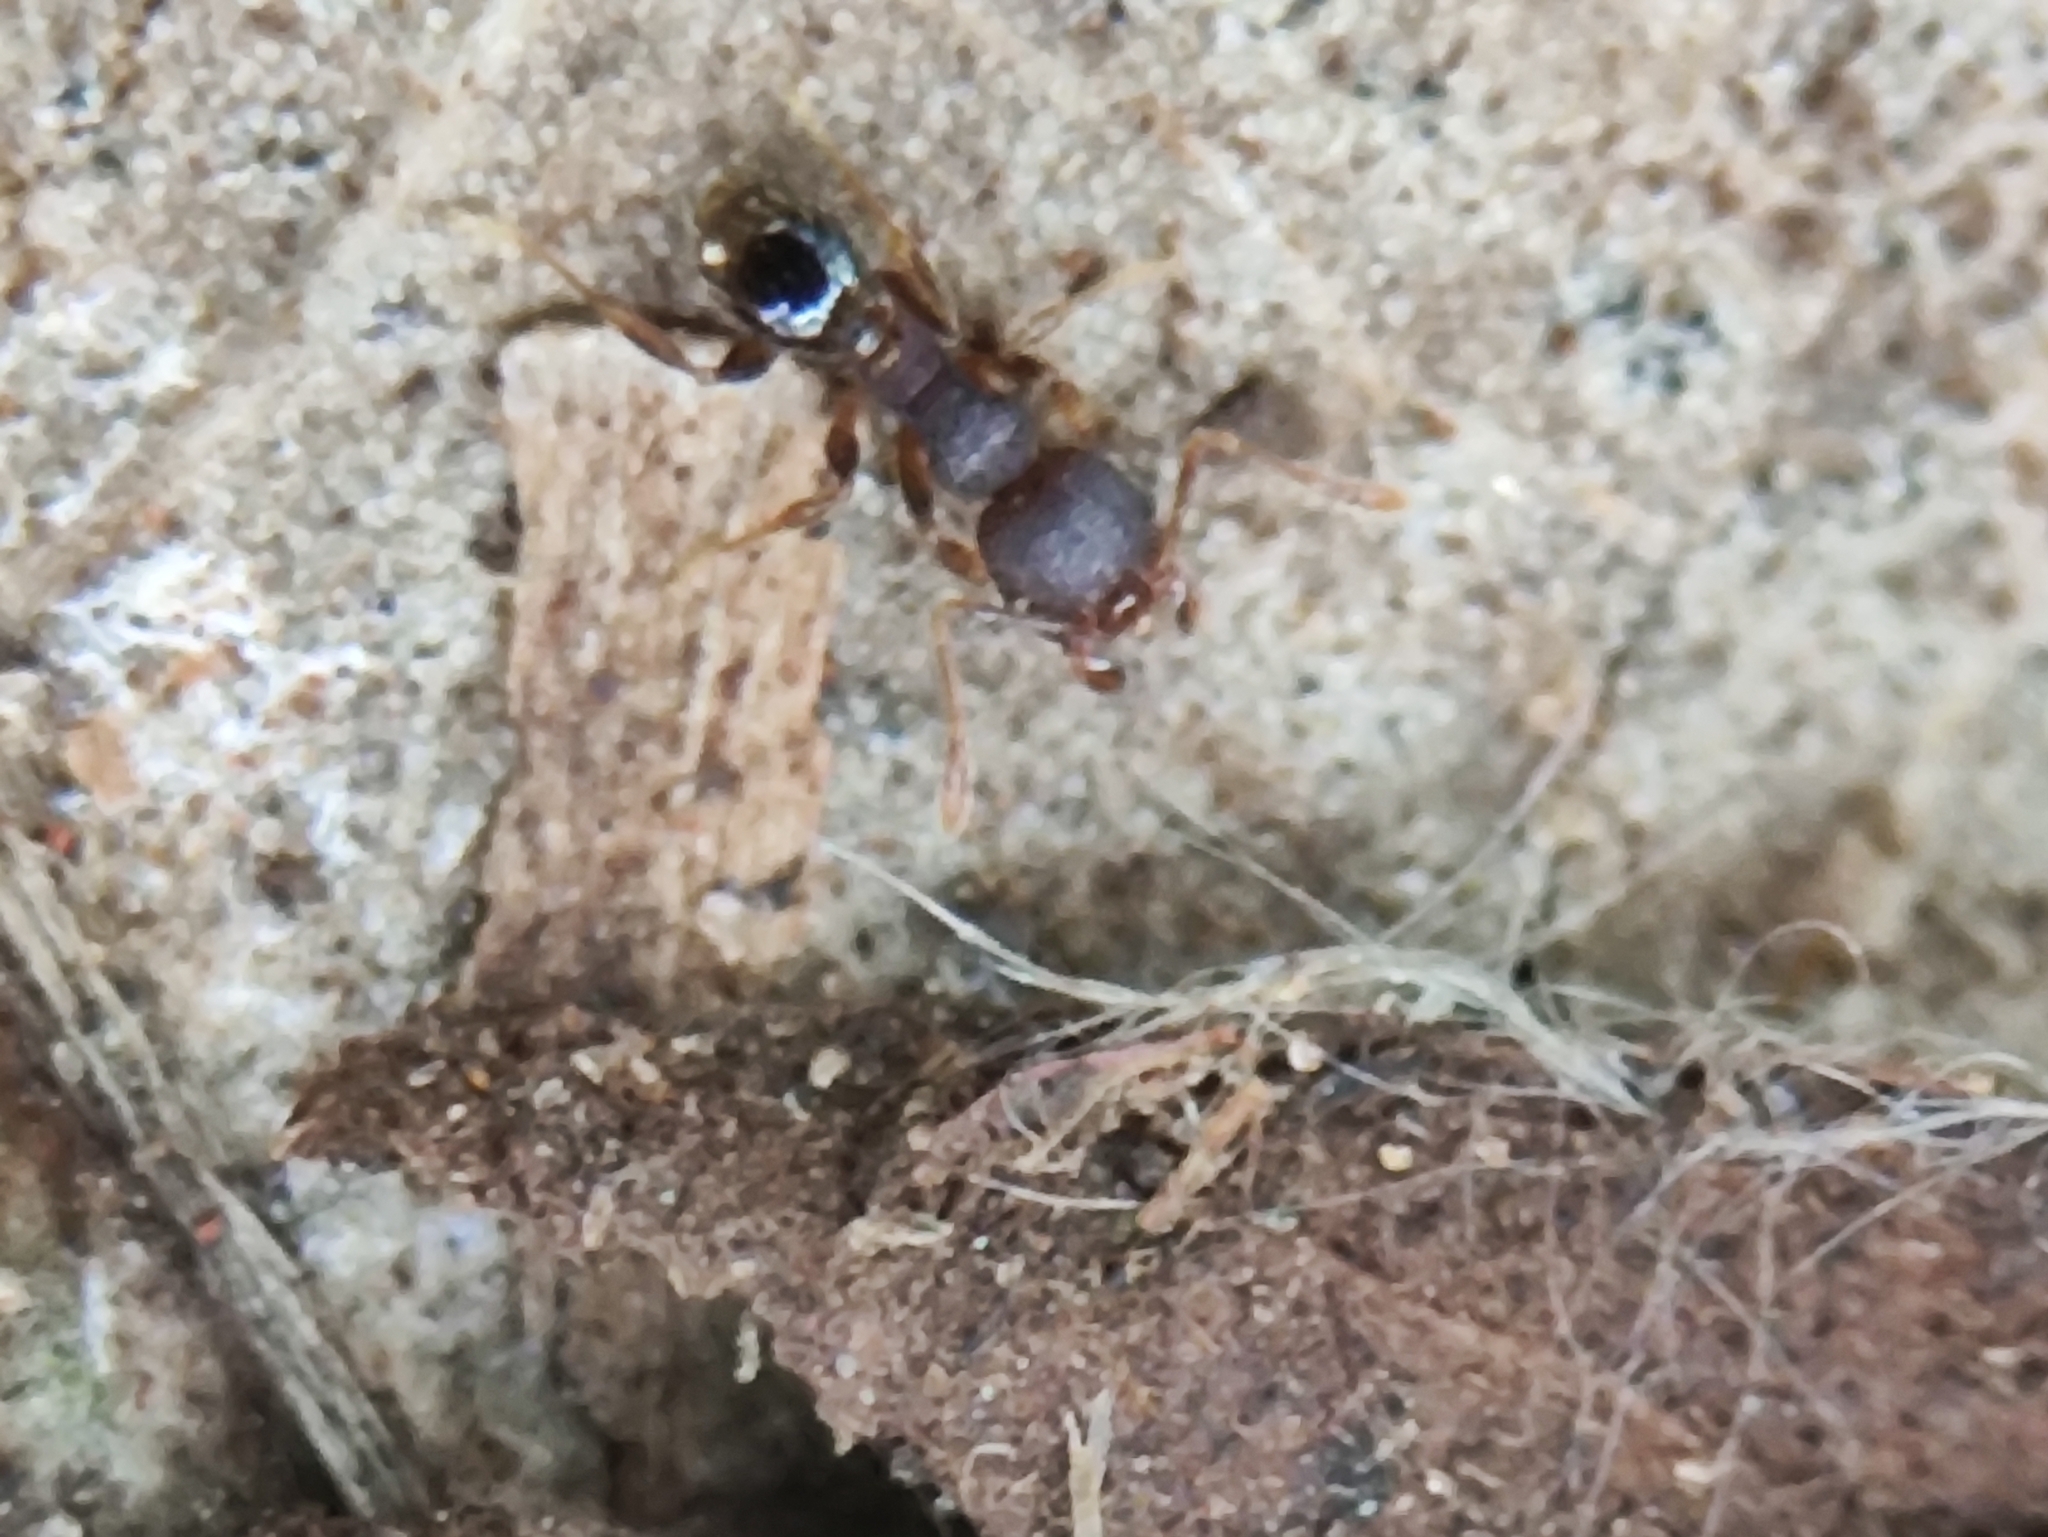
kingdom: Animalia
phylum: Arthropoda
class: Insecta
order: Hymenoptera
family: Formicidae
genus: Pheidole
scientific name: Pheidole parva
